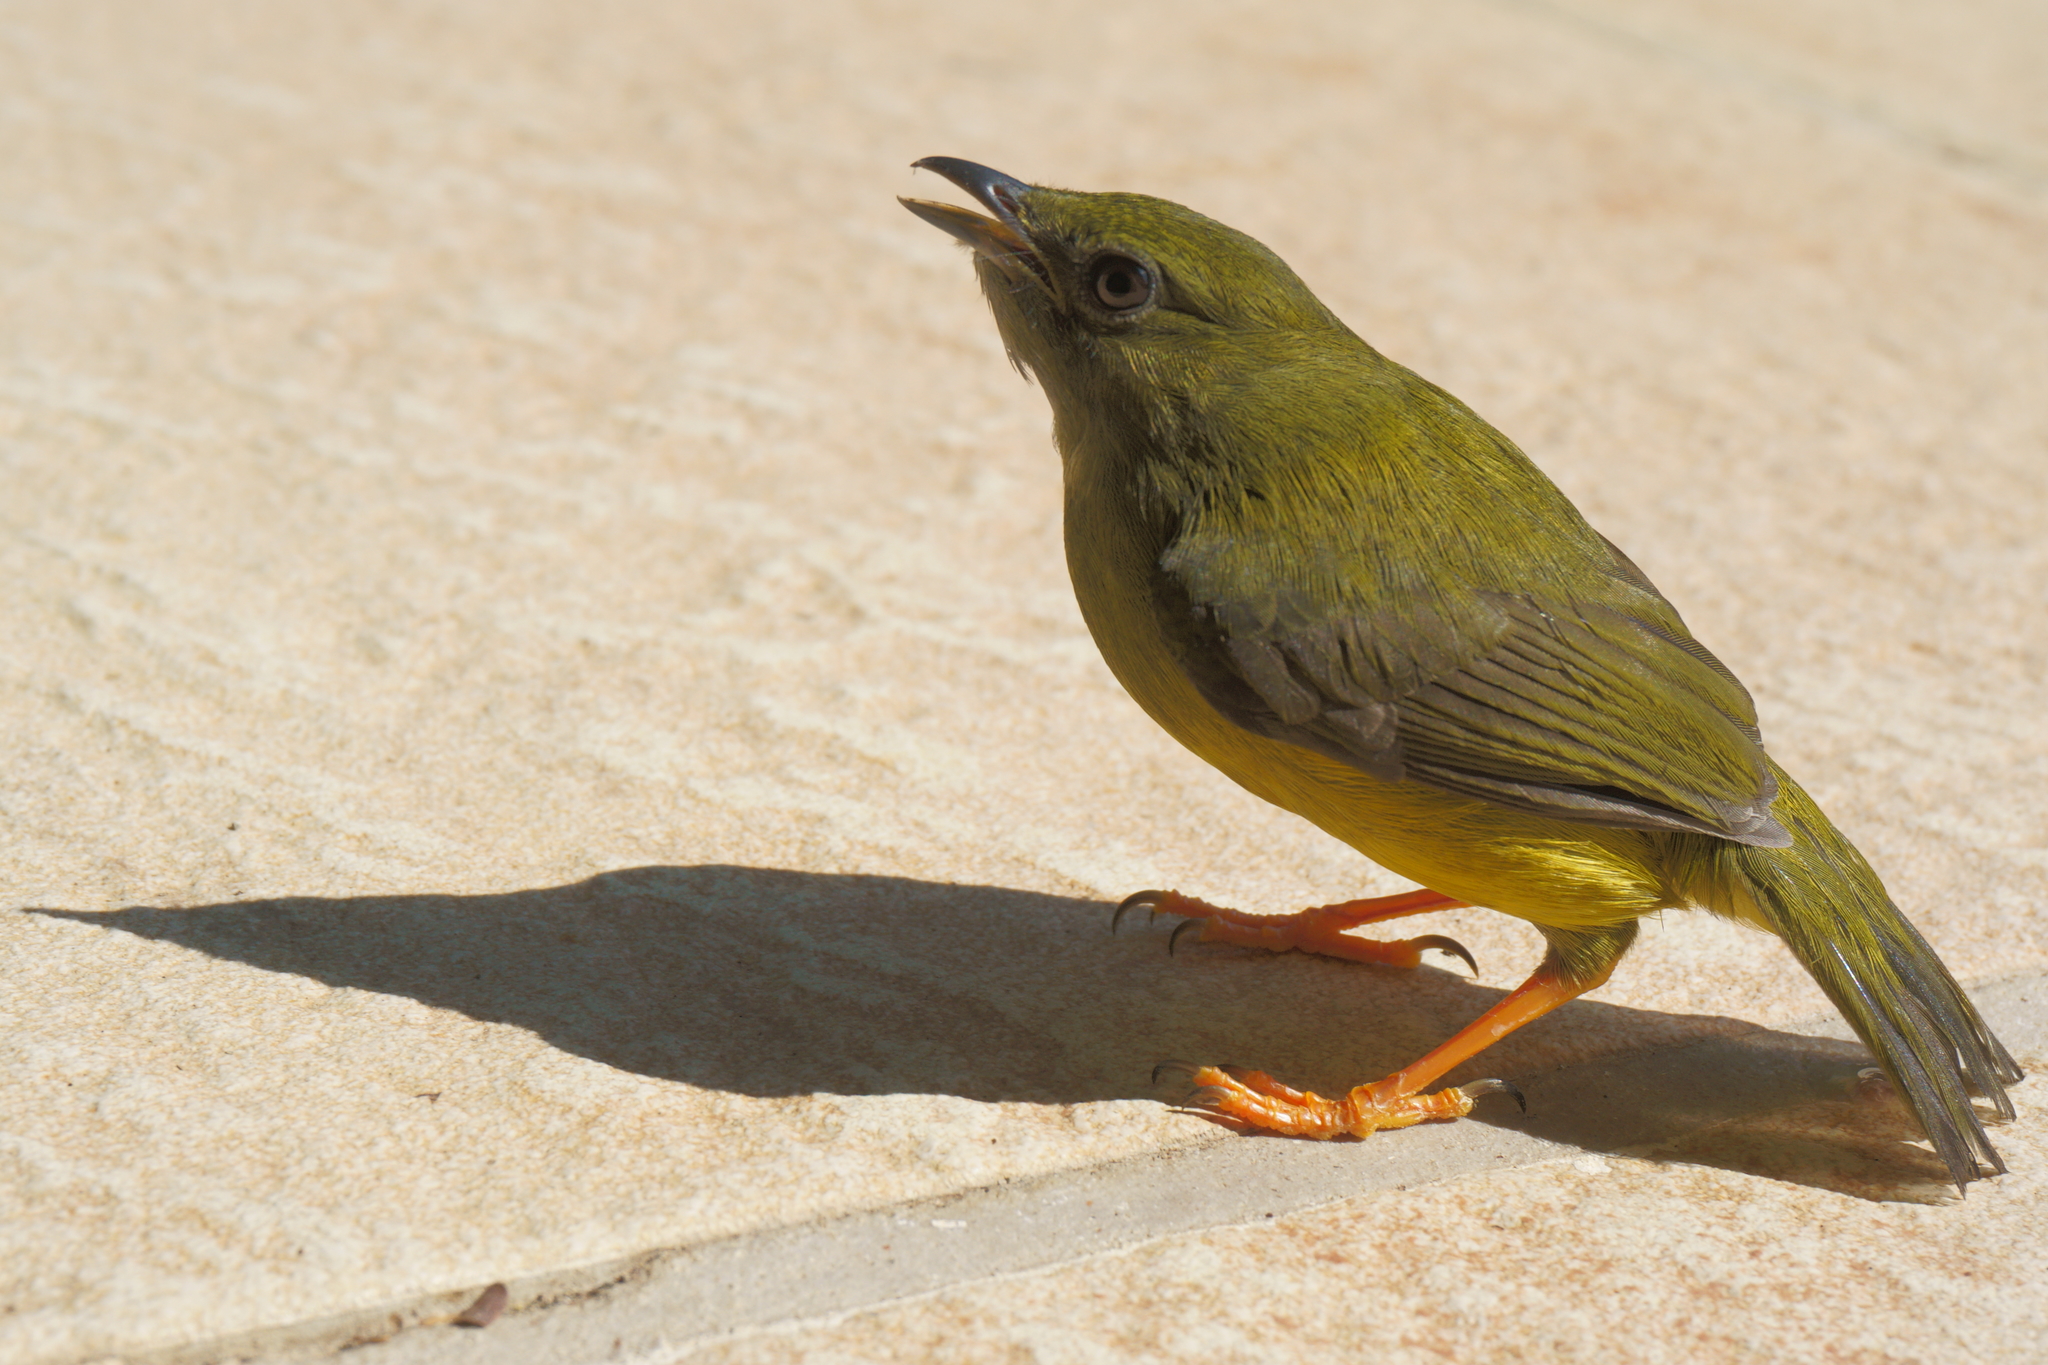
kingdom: Animalia
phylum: Chordata
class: Aves
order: Passeriformes
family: Pipridae
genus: Manacus
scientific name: Manacus candei
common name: White-collared manakin
